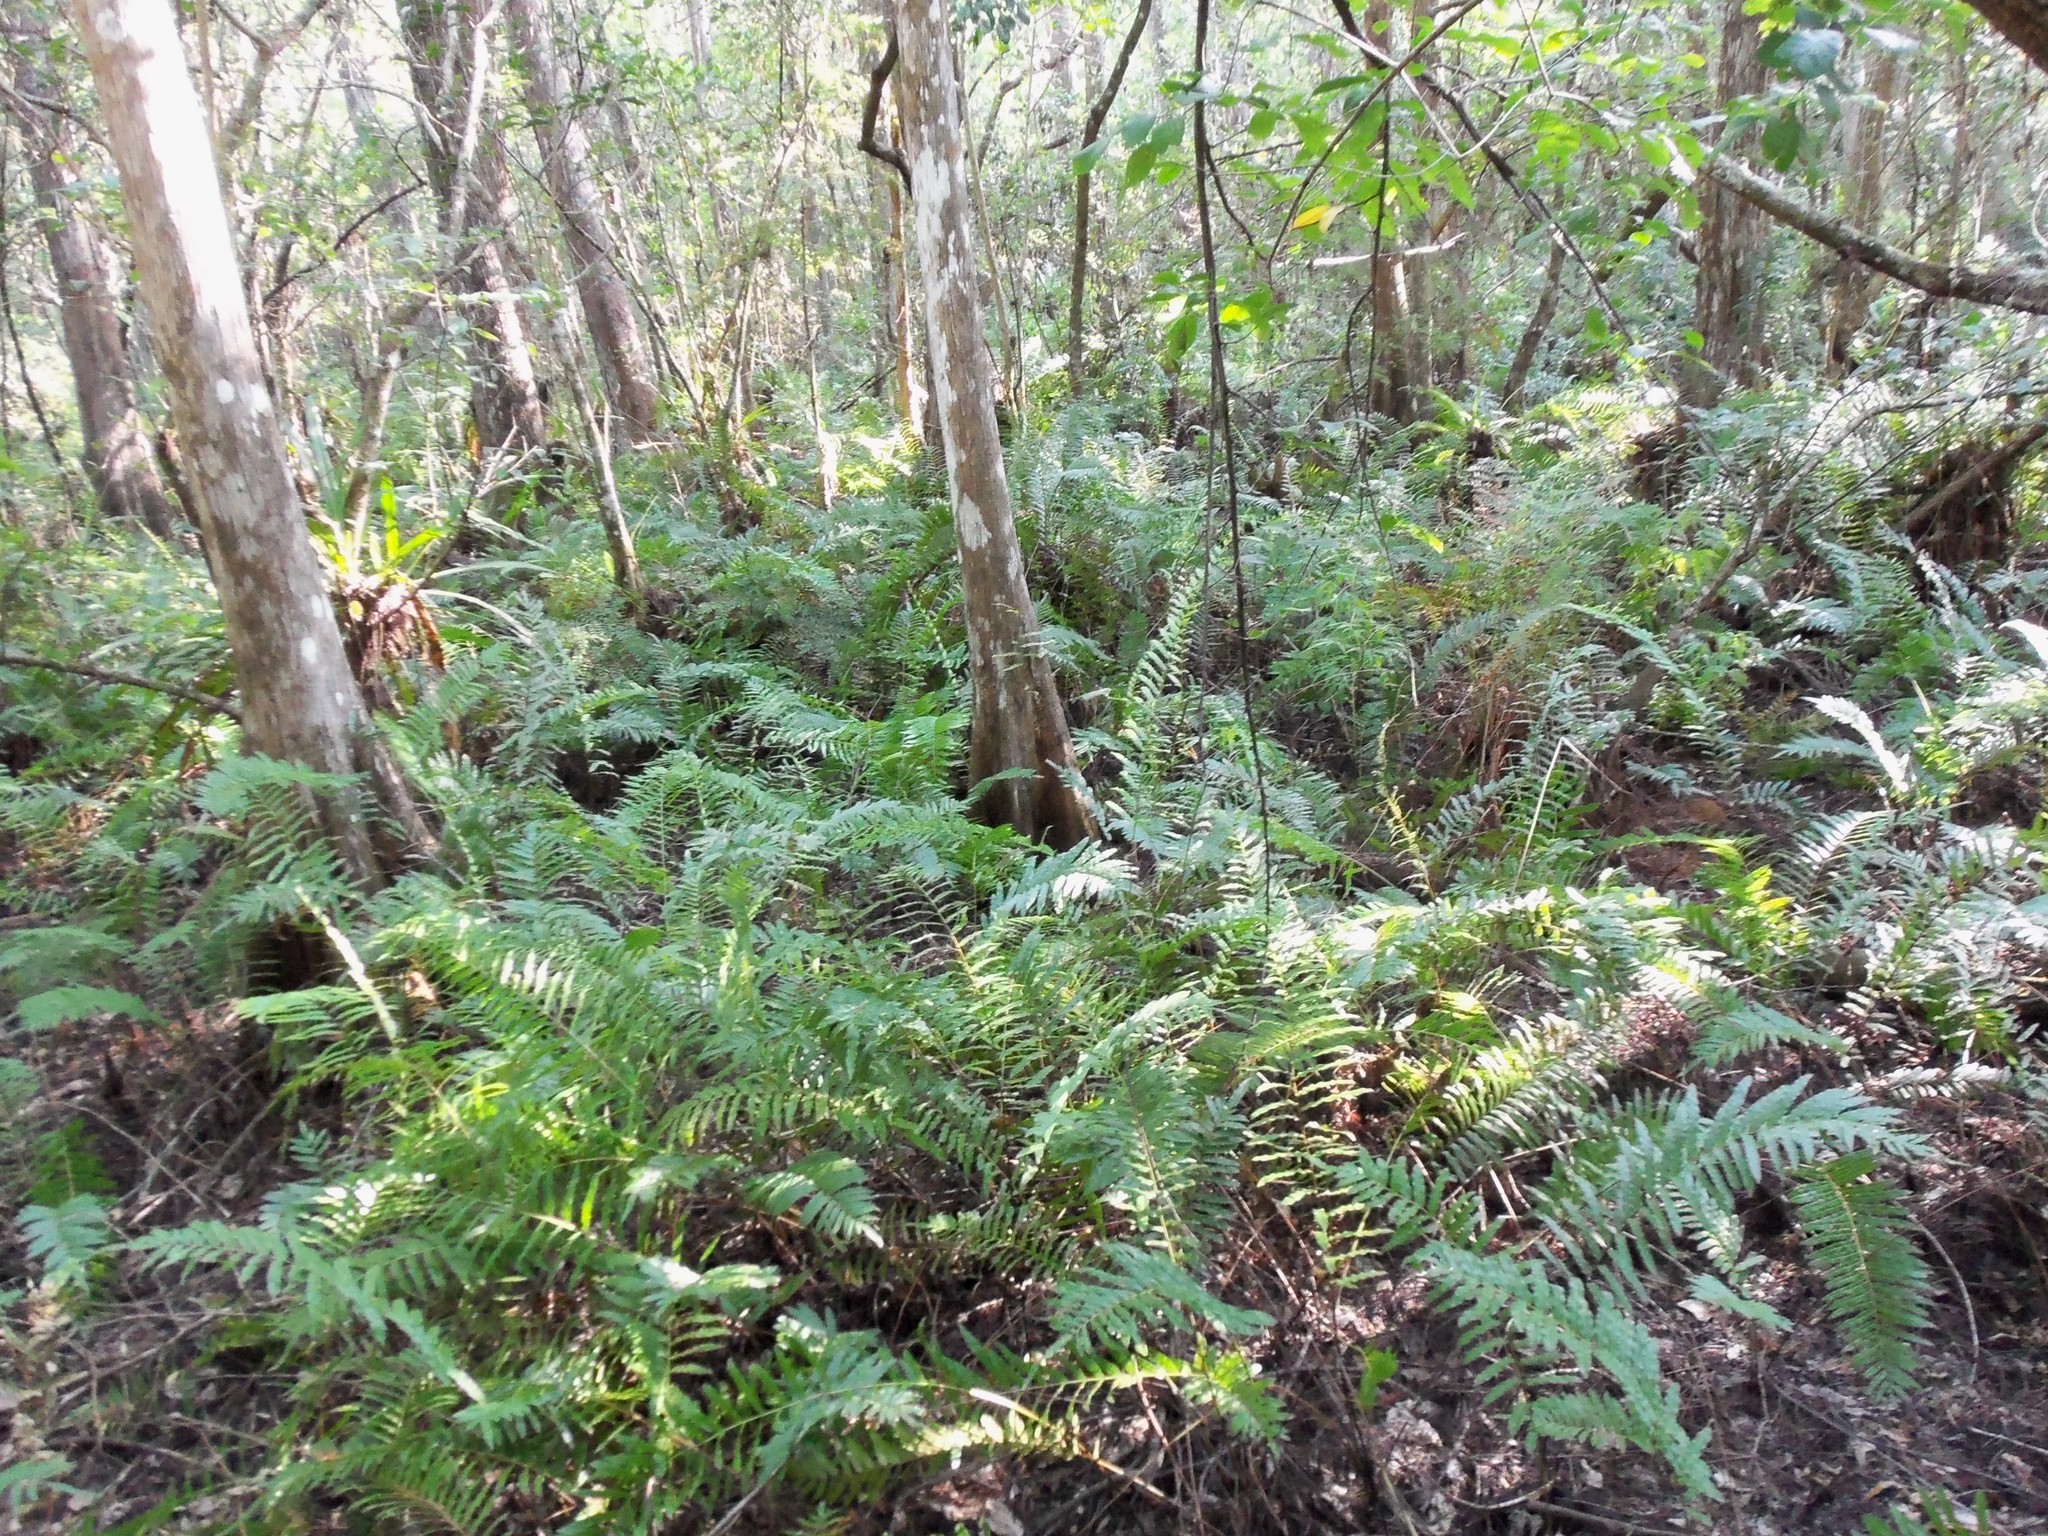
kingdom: Plantae
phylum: Tracheophyta
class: Polypodiopsida
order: Polypodiales
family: Blechnaceae
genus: Telmatoblechnum
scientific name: Telmatoblechnum serrulatum
